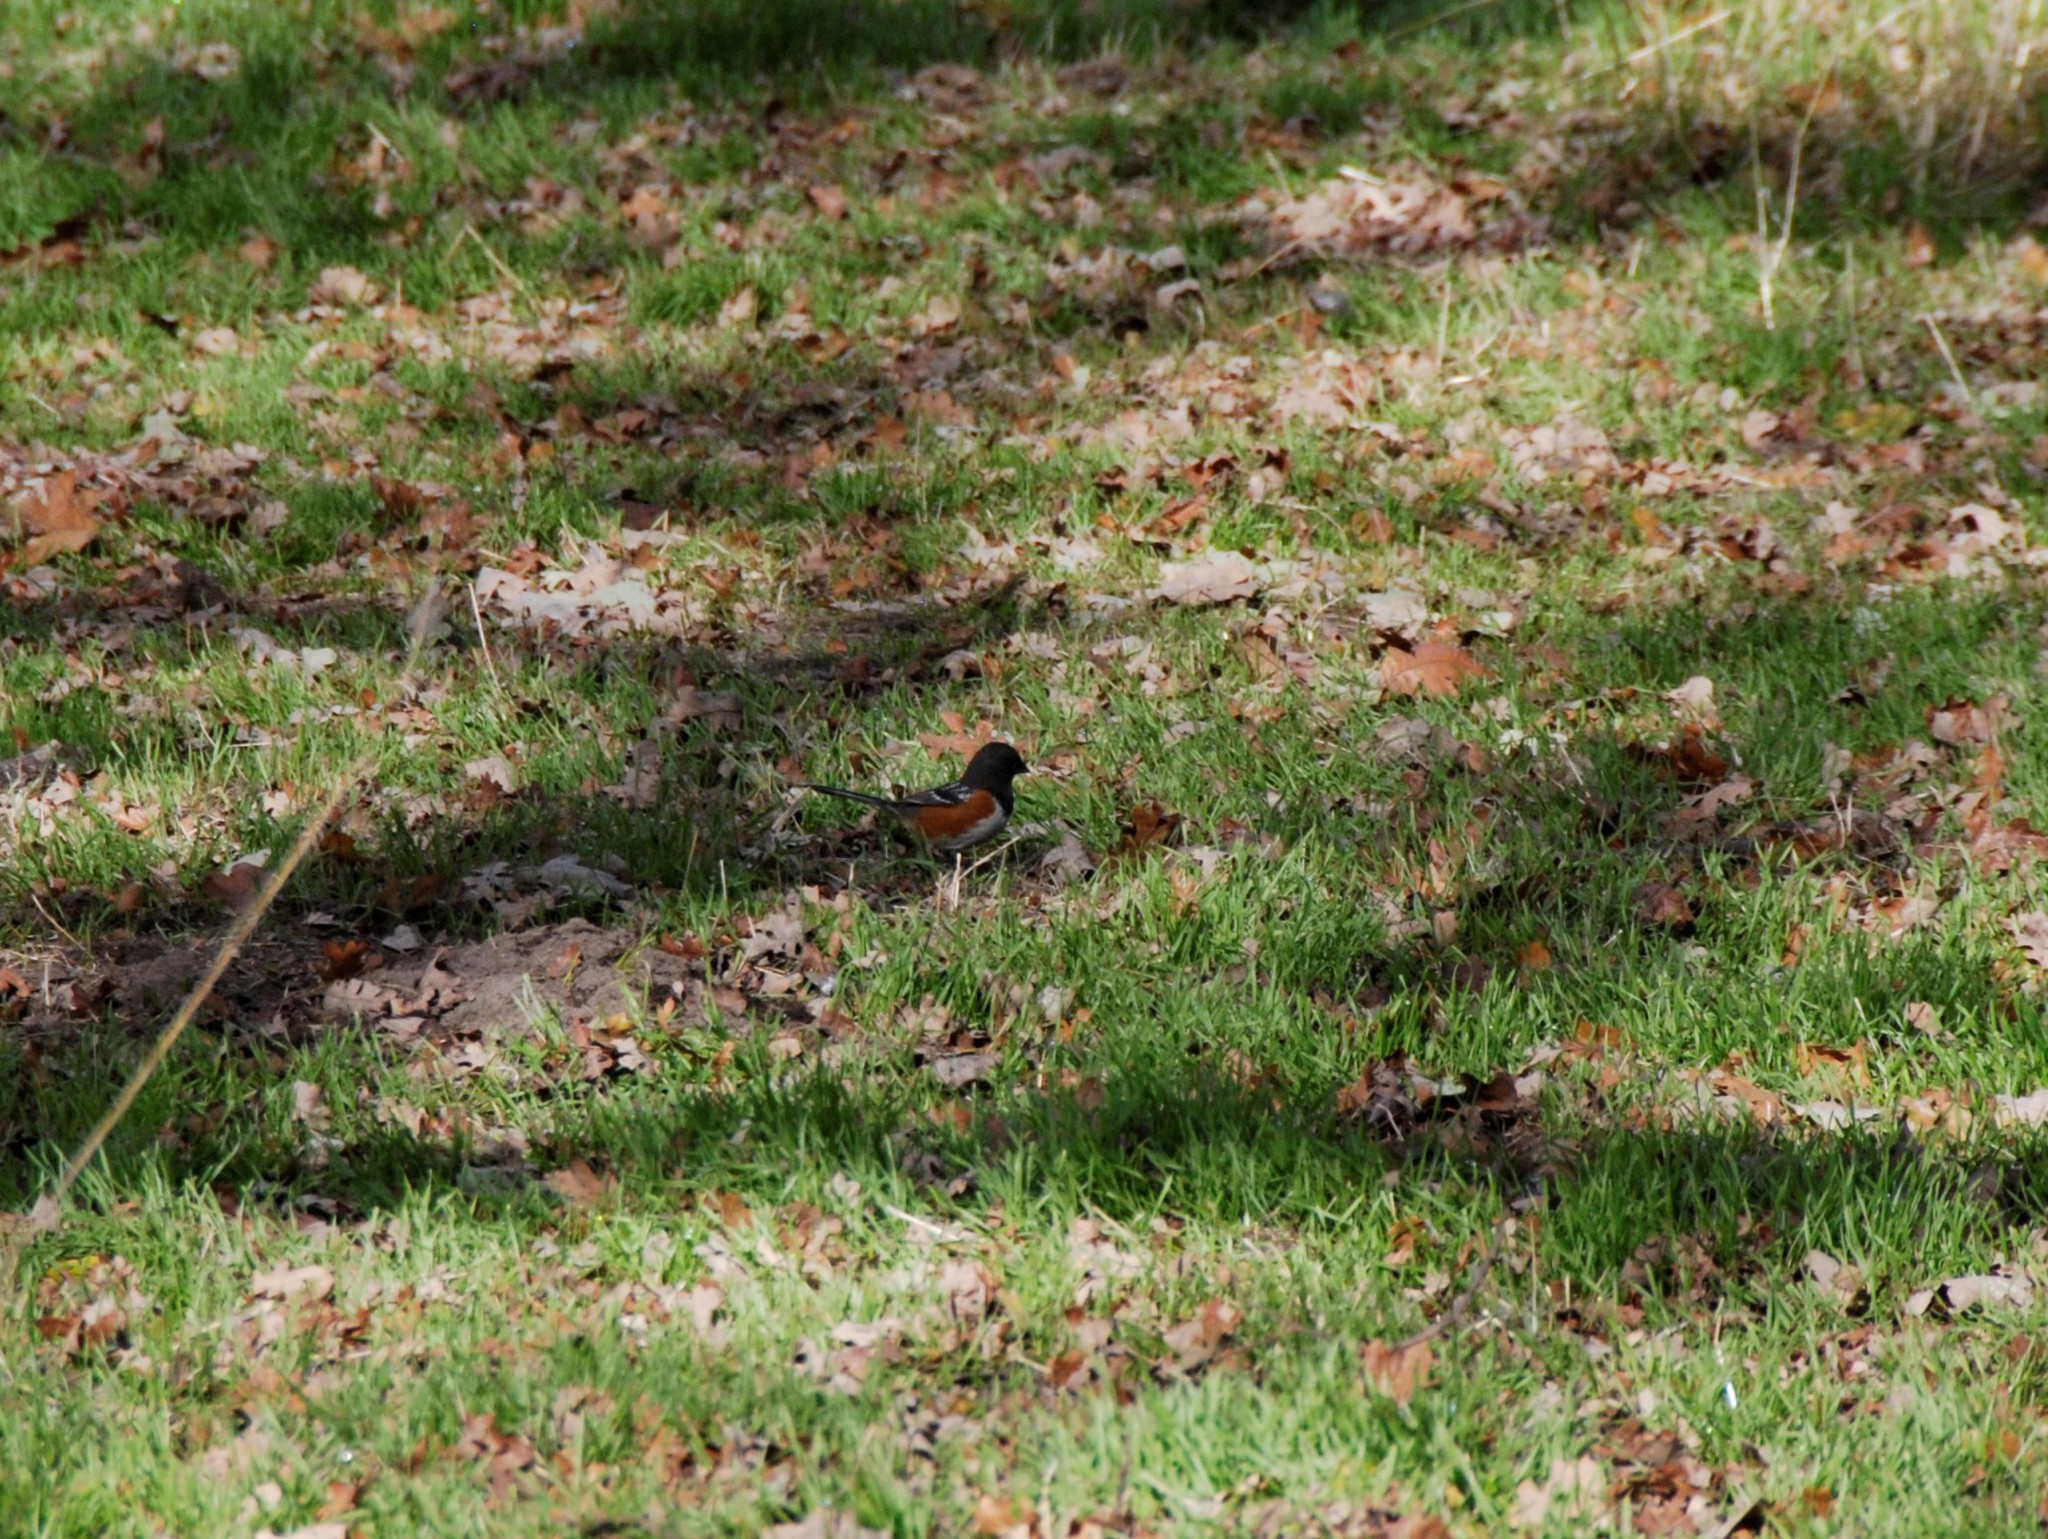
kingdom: Animalia
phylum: Chordata
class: Aves
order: Passeriformes
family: Passerellidae
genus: Pipilo
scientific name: Pipilo maculatus
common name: Spotted towhee
